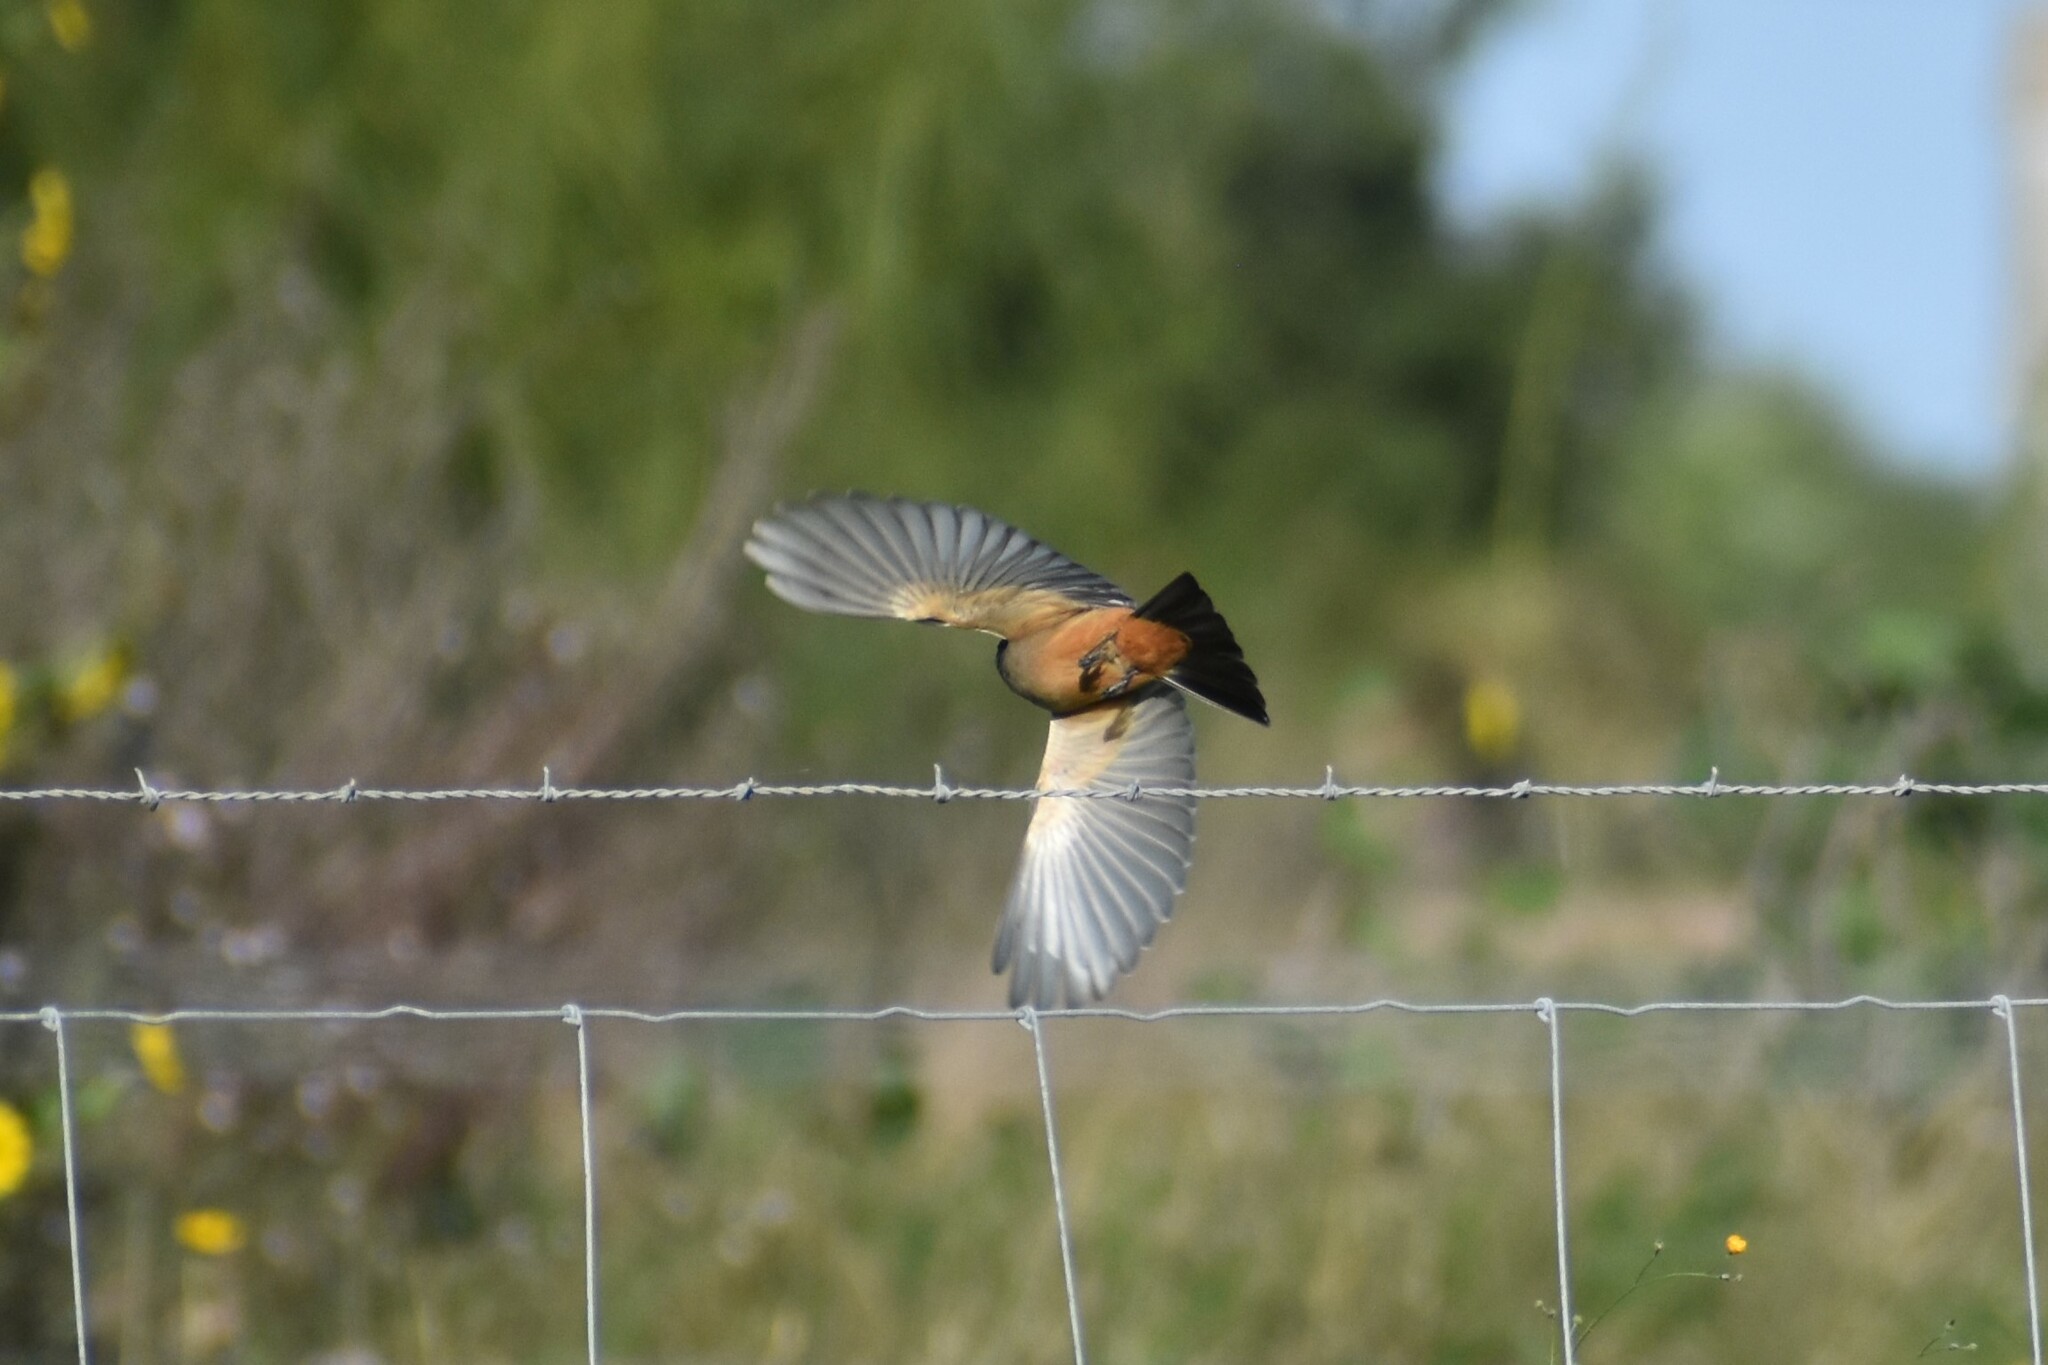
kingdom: Animalia
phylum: Chordata
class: Aves
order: Passeriformes
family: Tyrannidae
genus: Sayornis
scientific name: Sayornis saya
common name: Say's phoebe
